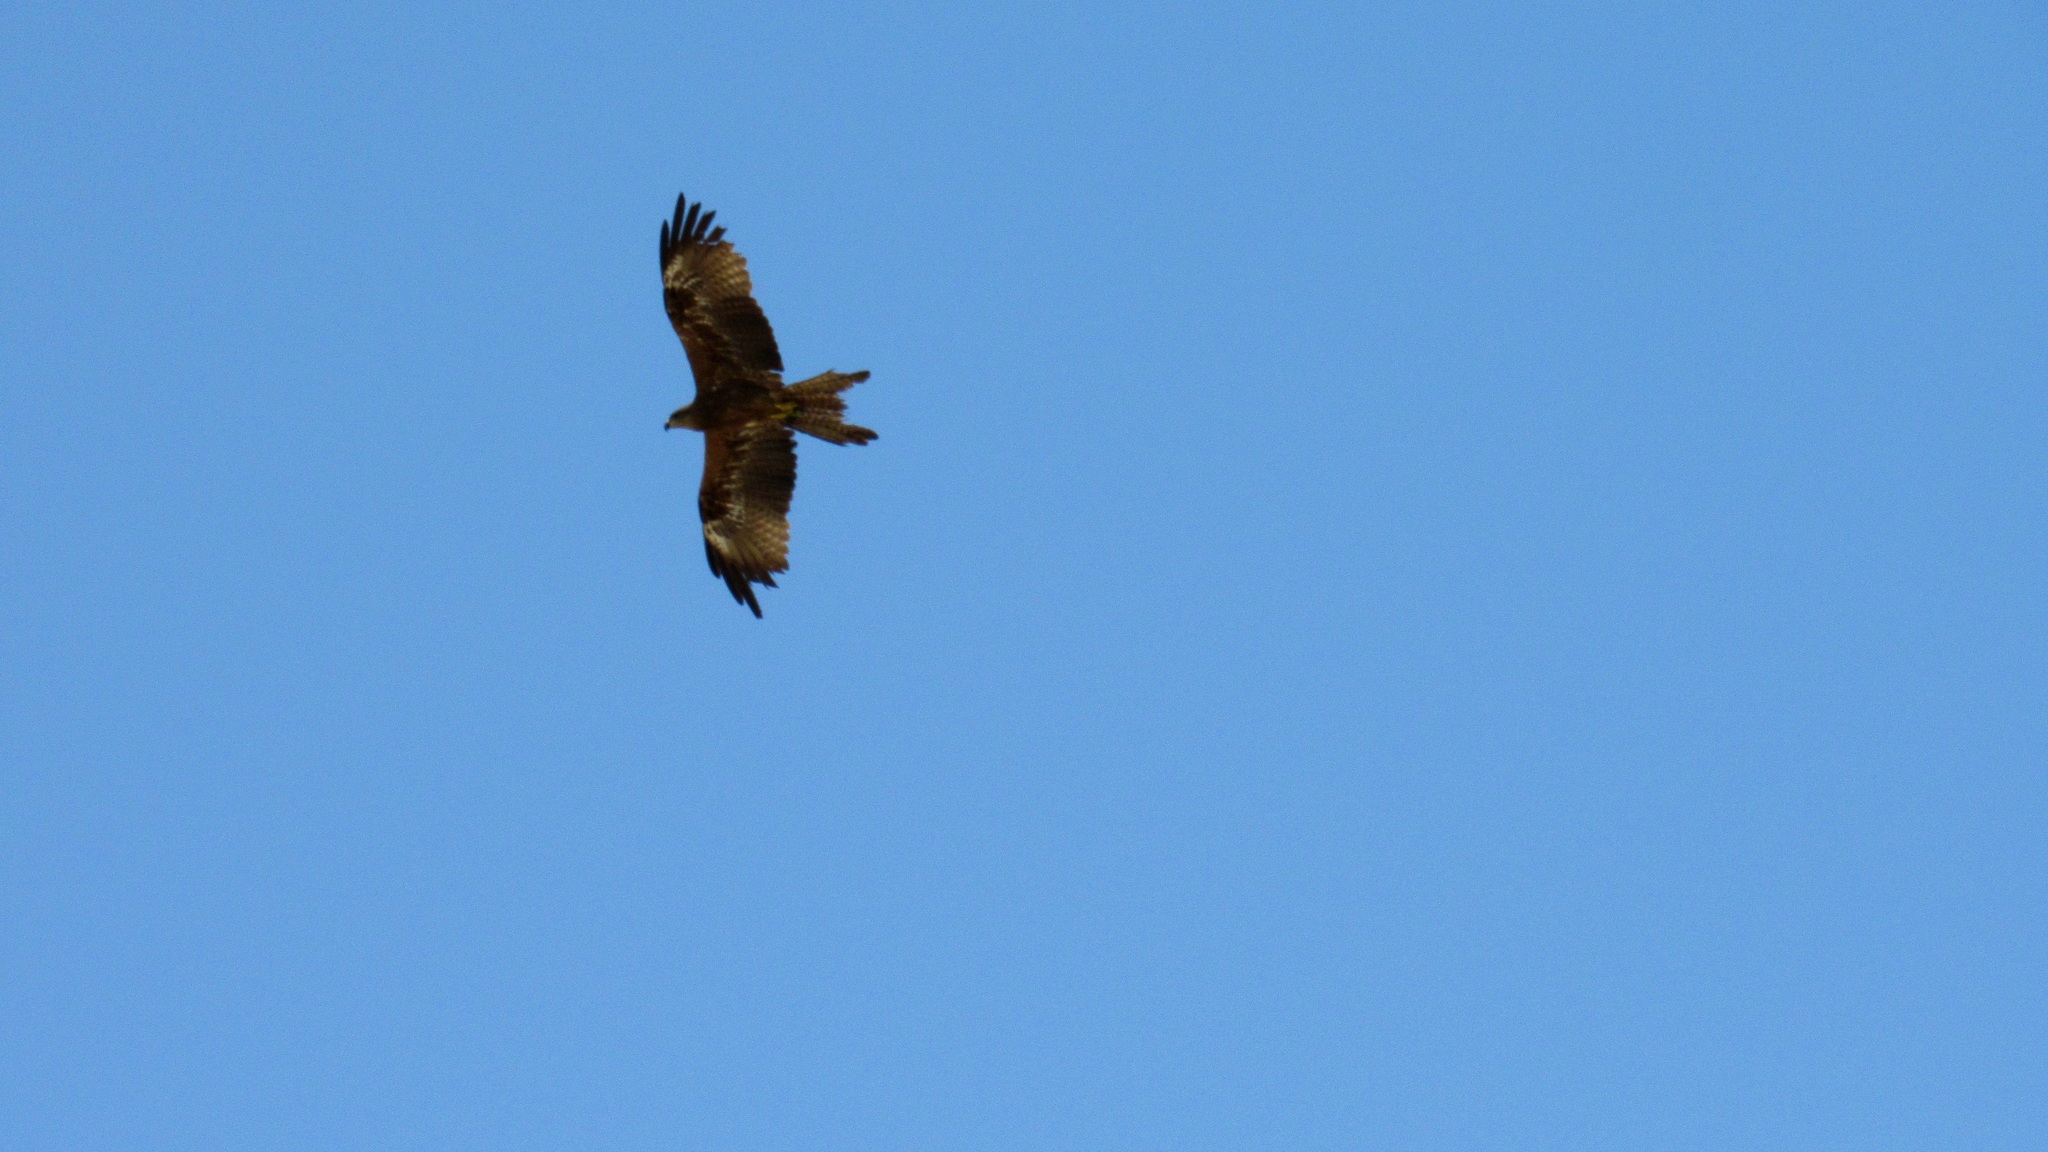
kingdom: Animalia
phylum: Chordata
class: Aves
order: Accipitriformes
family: Accipitridae
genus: Milvus
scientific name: Milvus migrans
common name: Black kite
